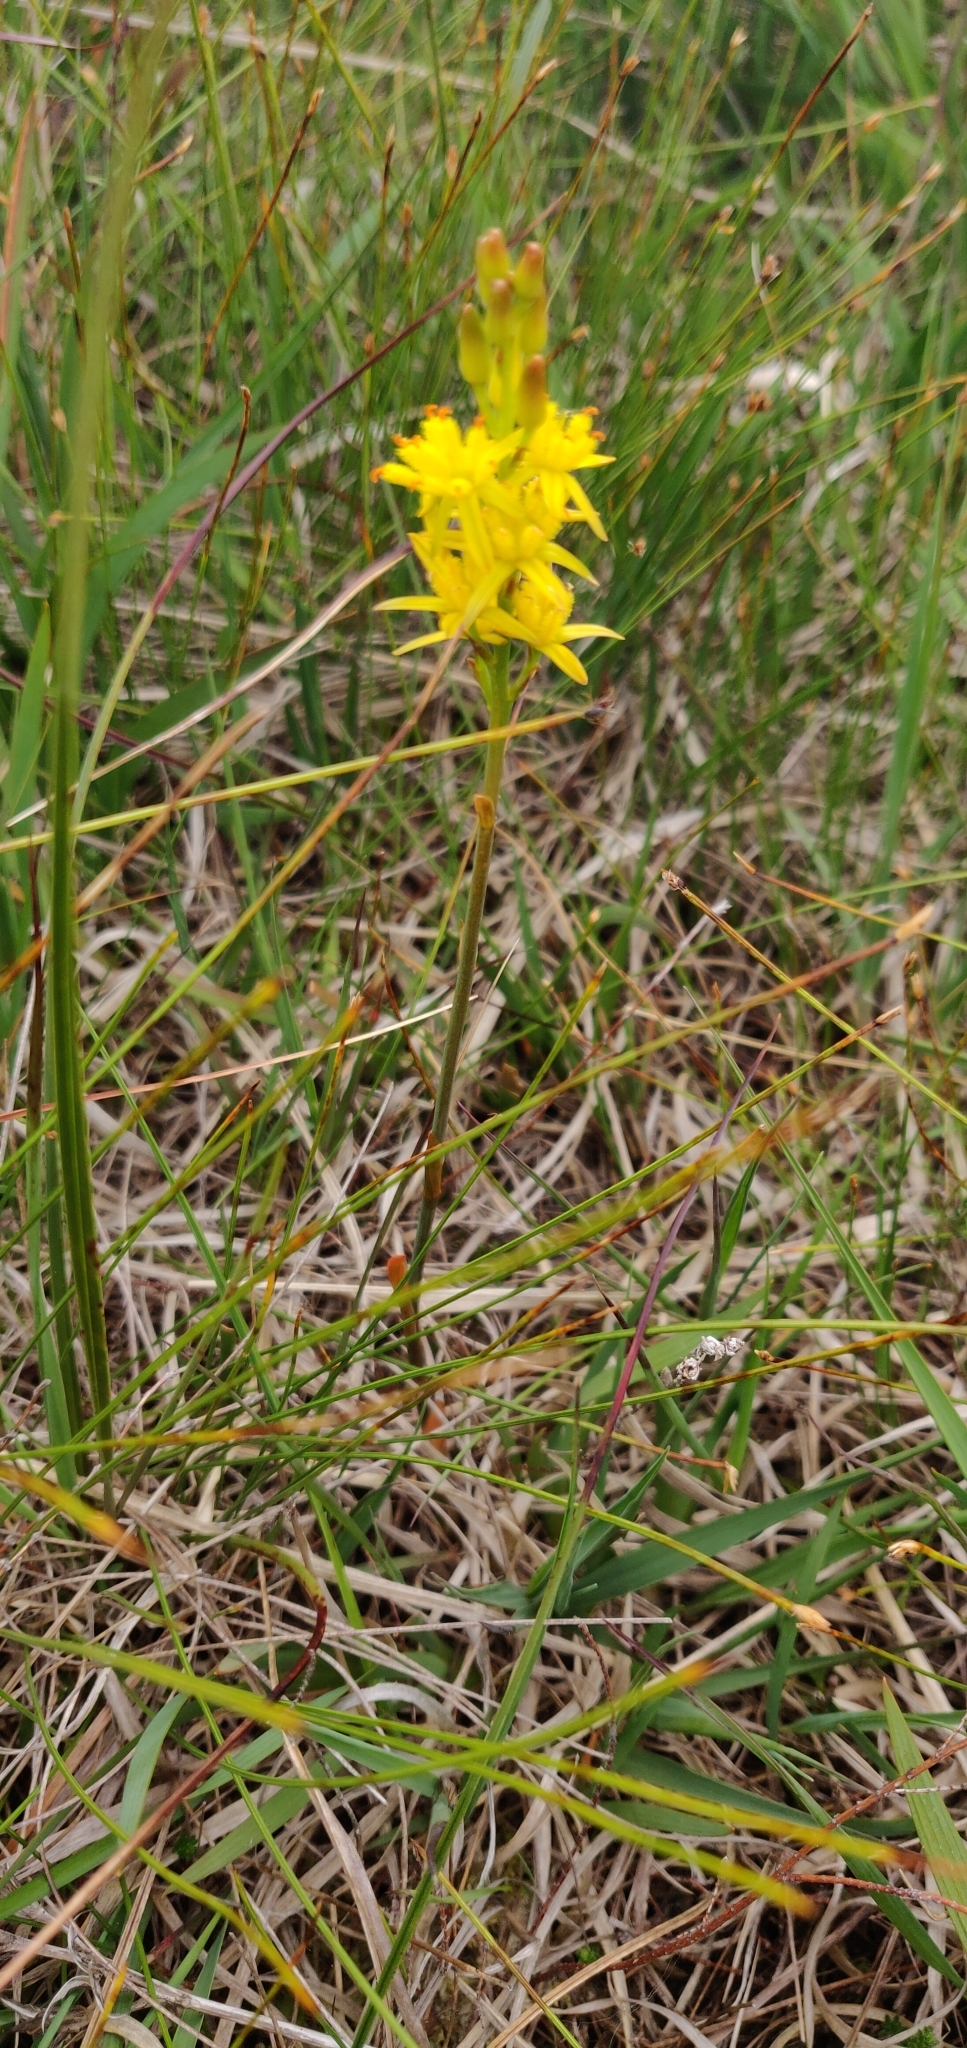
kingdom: Plantae
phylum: Tracheophyta
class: Liliopsida
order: Dioscoreales
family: Nartheciaceae
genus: Narthecium
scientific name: Narthecium ossifragum
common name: Bog asphodel
